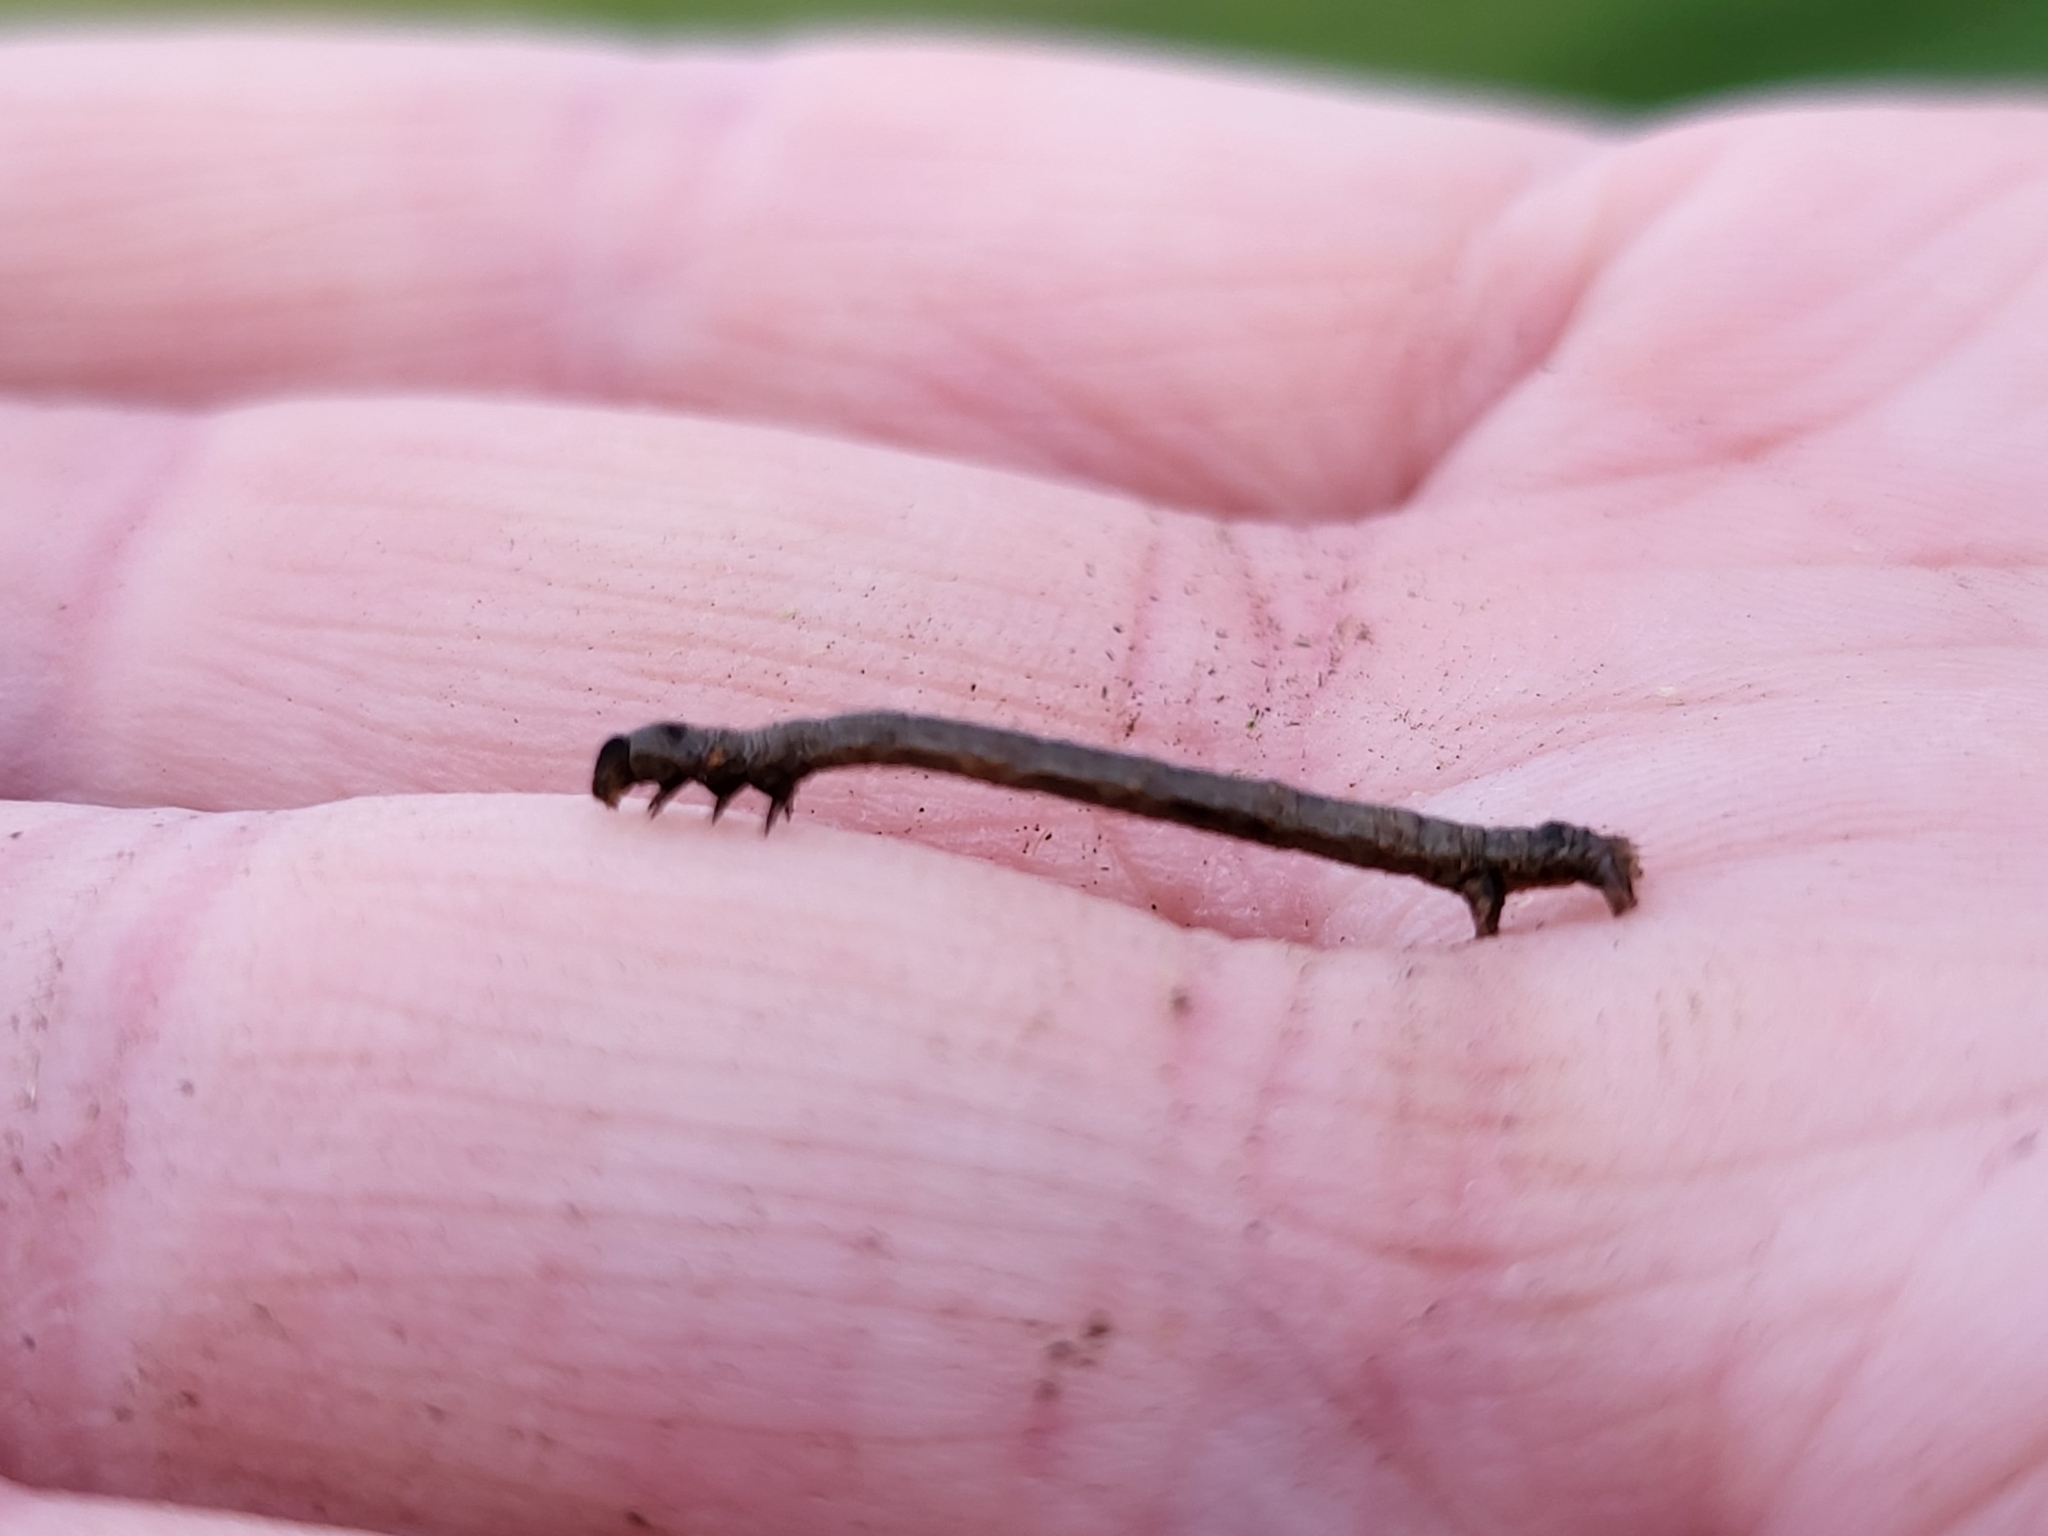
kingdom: Animalia
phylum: Arthropoda
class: Insecta
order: Lepidoptera
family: Geometridae
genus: Glena
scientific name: Glena cribrataria
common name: Dotted gray
